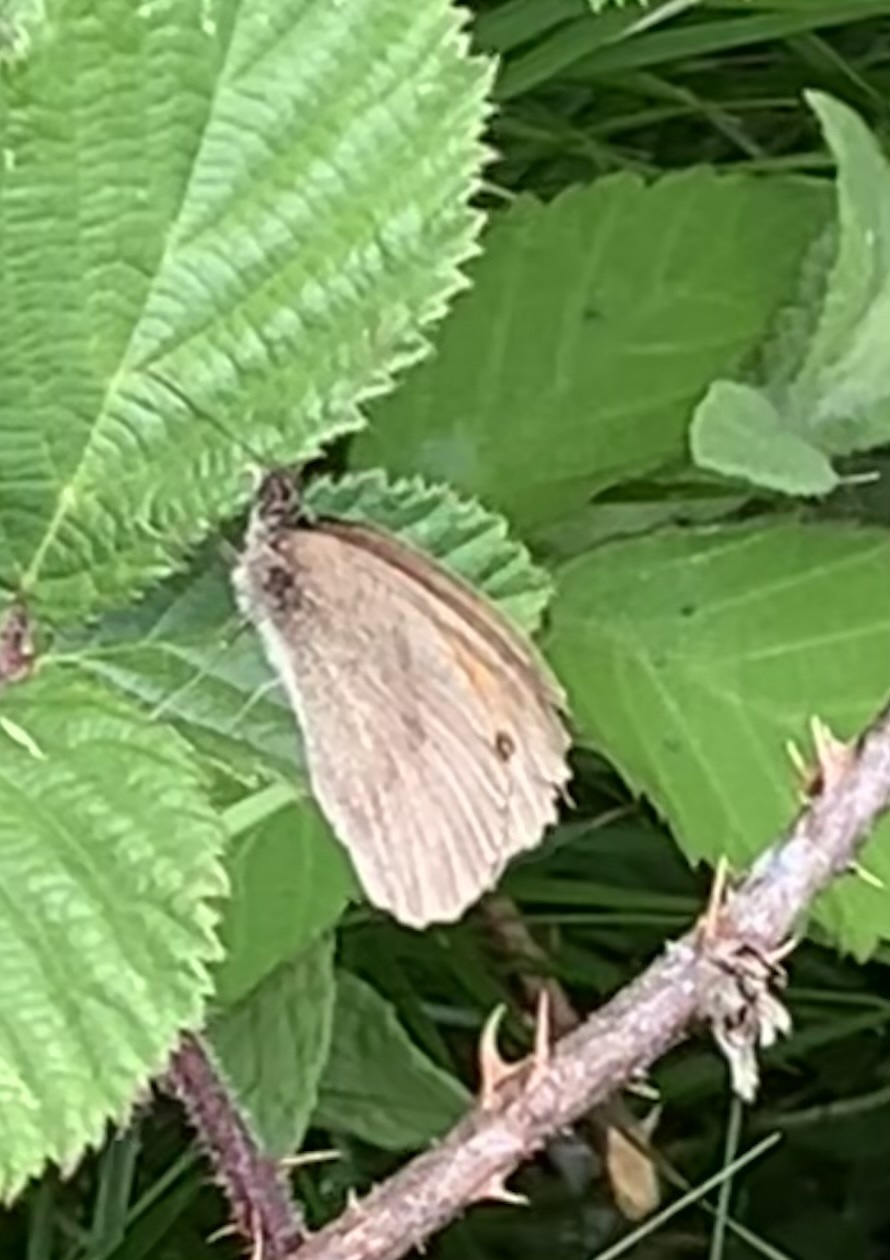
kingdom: Animalia
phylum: Arthropoda
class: Insecta
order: Lepidoptera
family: Nymphalidae
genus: Maniola
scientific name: Maniola jurtina
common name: Meadow brown
